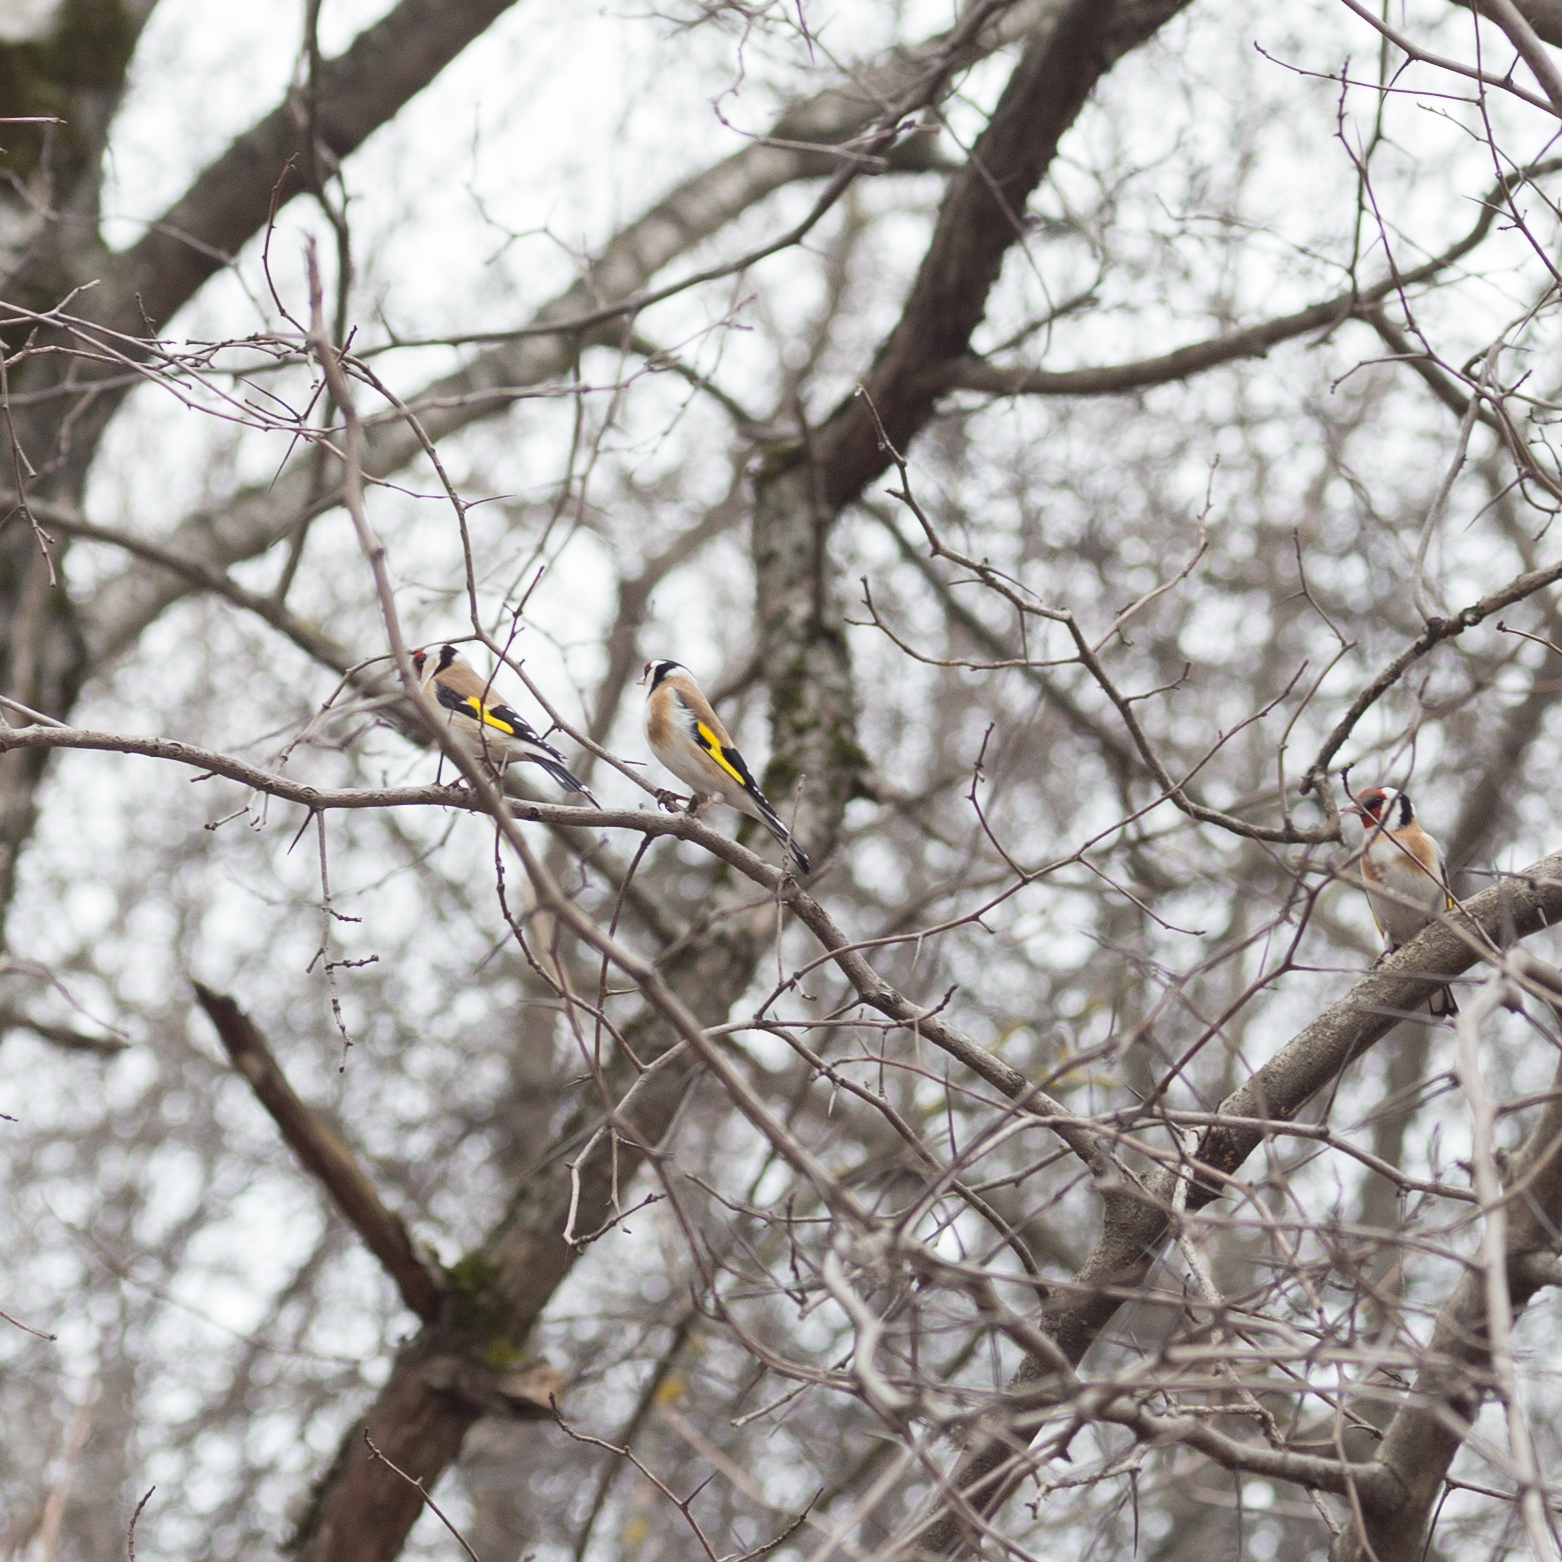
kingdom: Animalia
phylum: Chordata
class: Aves
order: Passeriformes
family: Fringillidae
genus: Carduelis
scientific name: Carduelis carduelis
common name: European goldfinch
